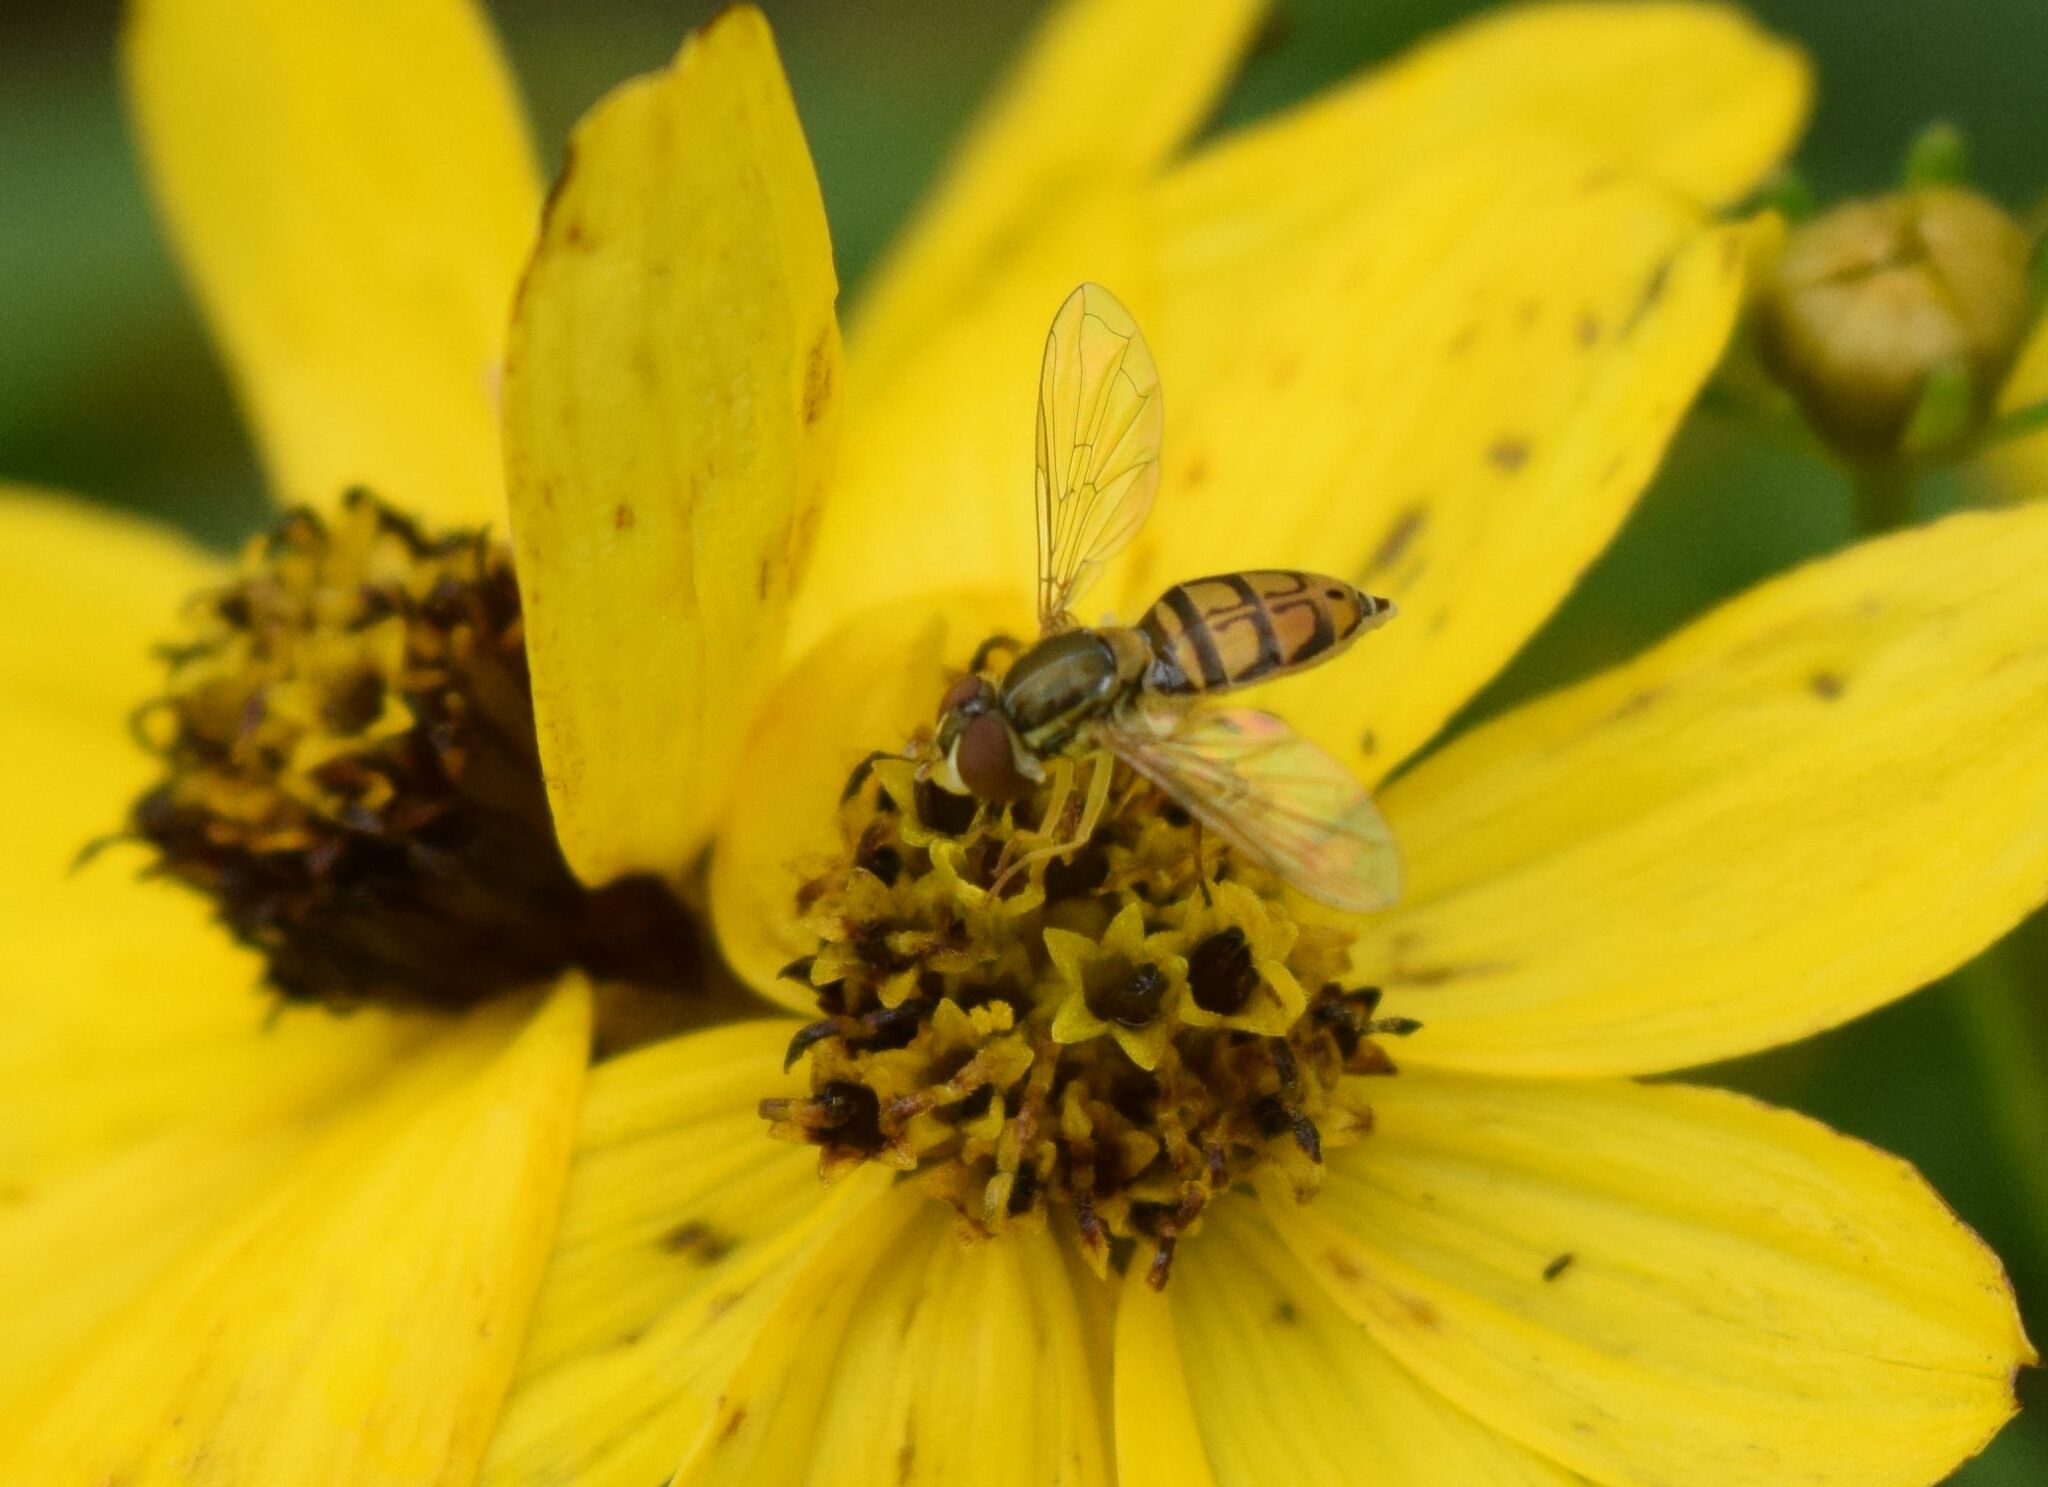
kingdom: Animalia
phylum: Arthropoda
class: Insecta
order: Diptera
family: Syrphidae
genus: Toxomerus
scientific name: Toxomerus marginatus
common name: Syrphid fly
